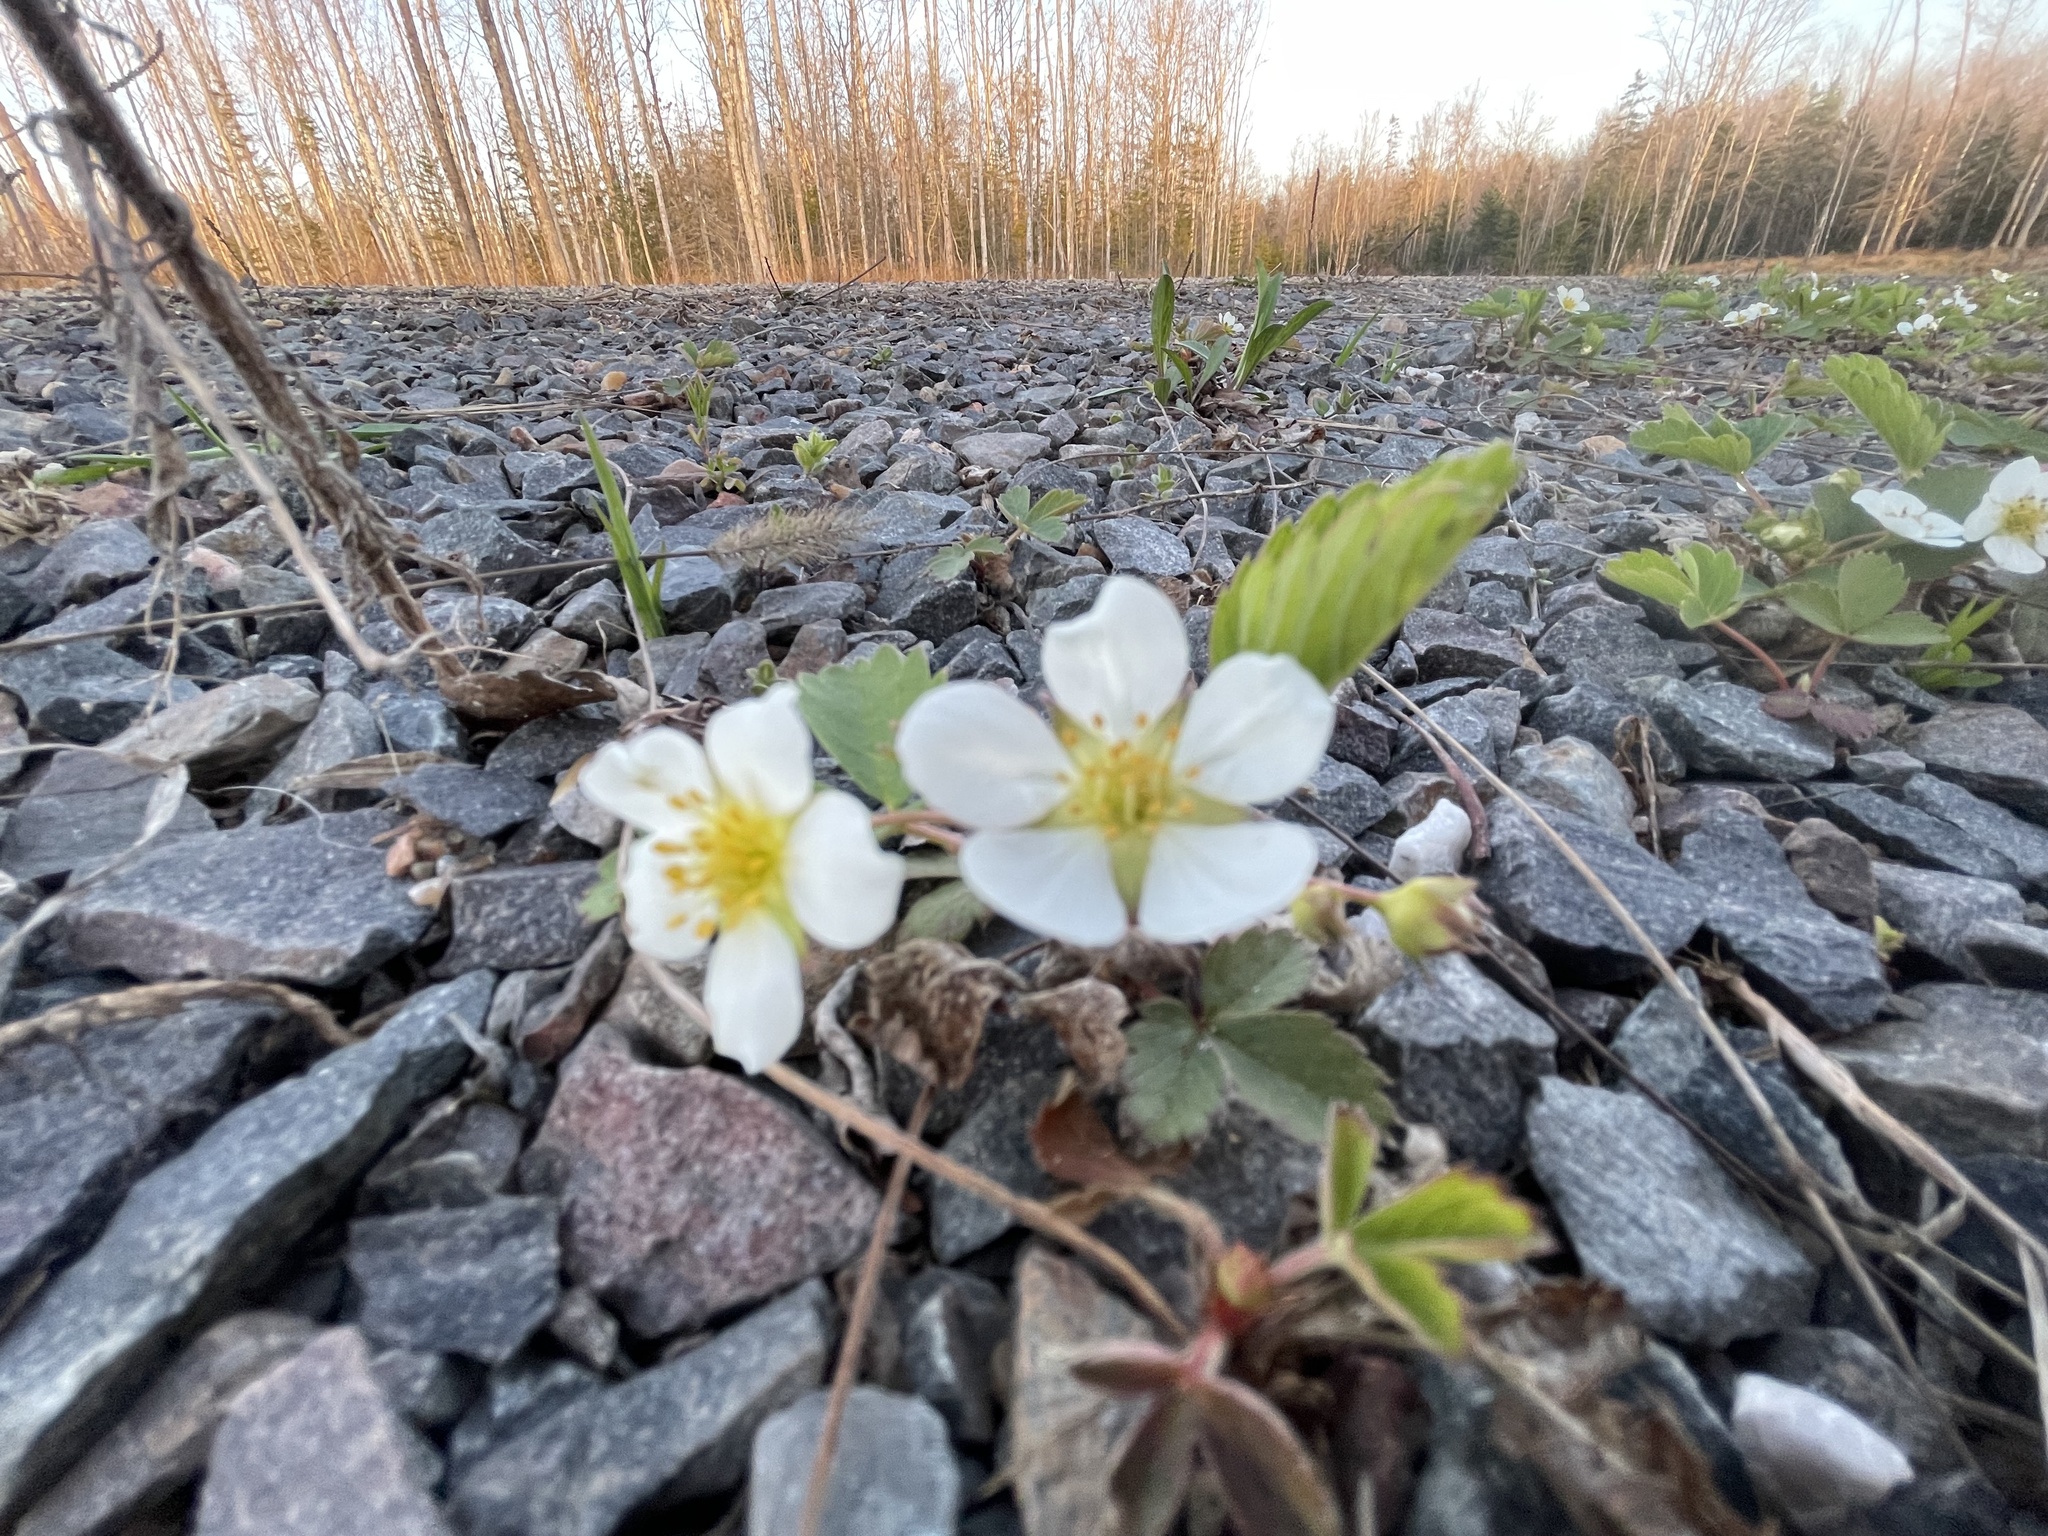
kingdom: Plantae
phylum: Tracheophyta
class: Magnoliopsida
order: Rosales
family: Rosaceae
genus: Fragaria
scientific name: Fragaria virginiana
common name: Thickleaved wild strawberry
